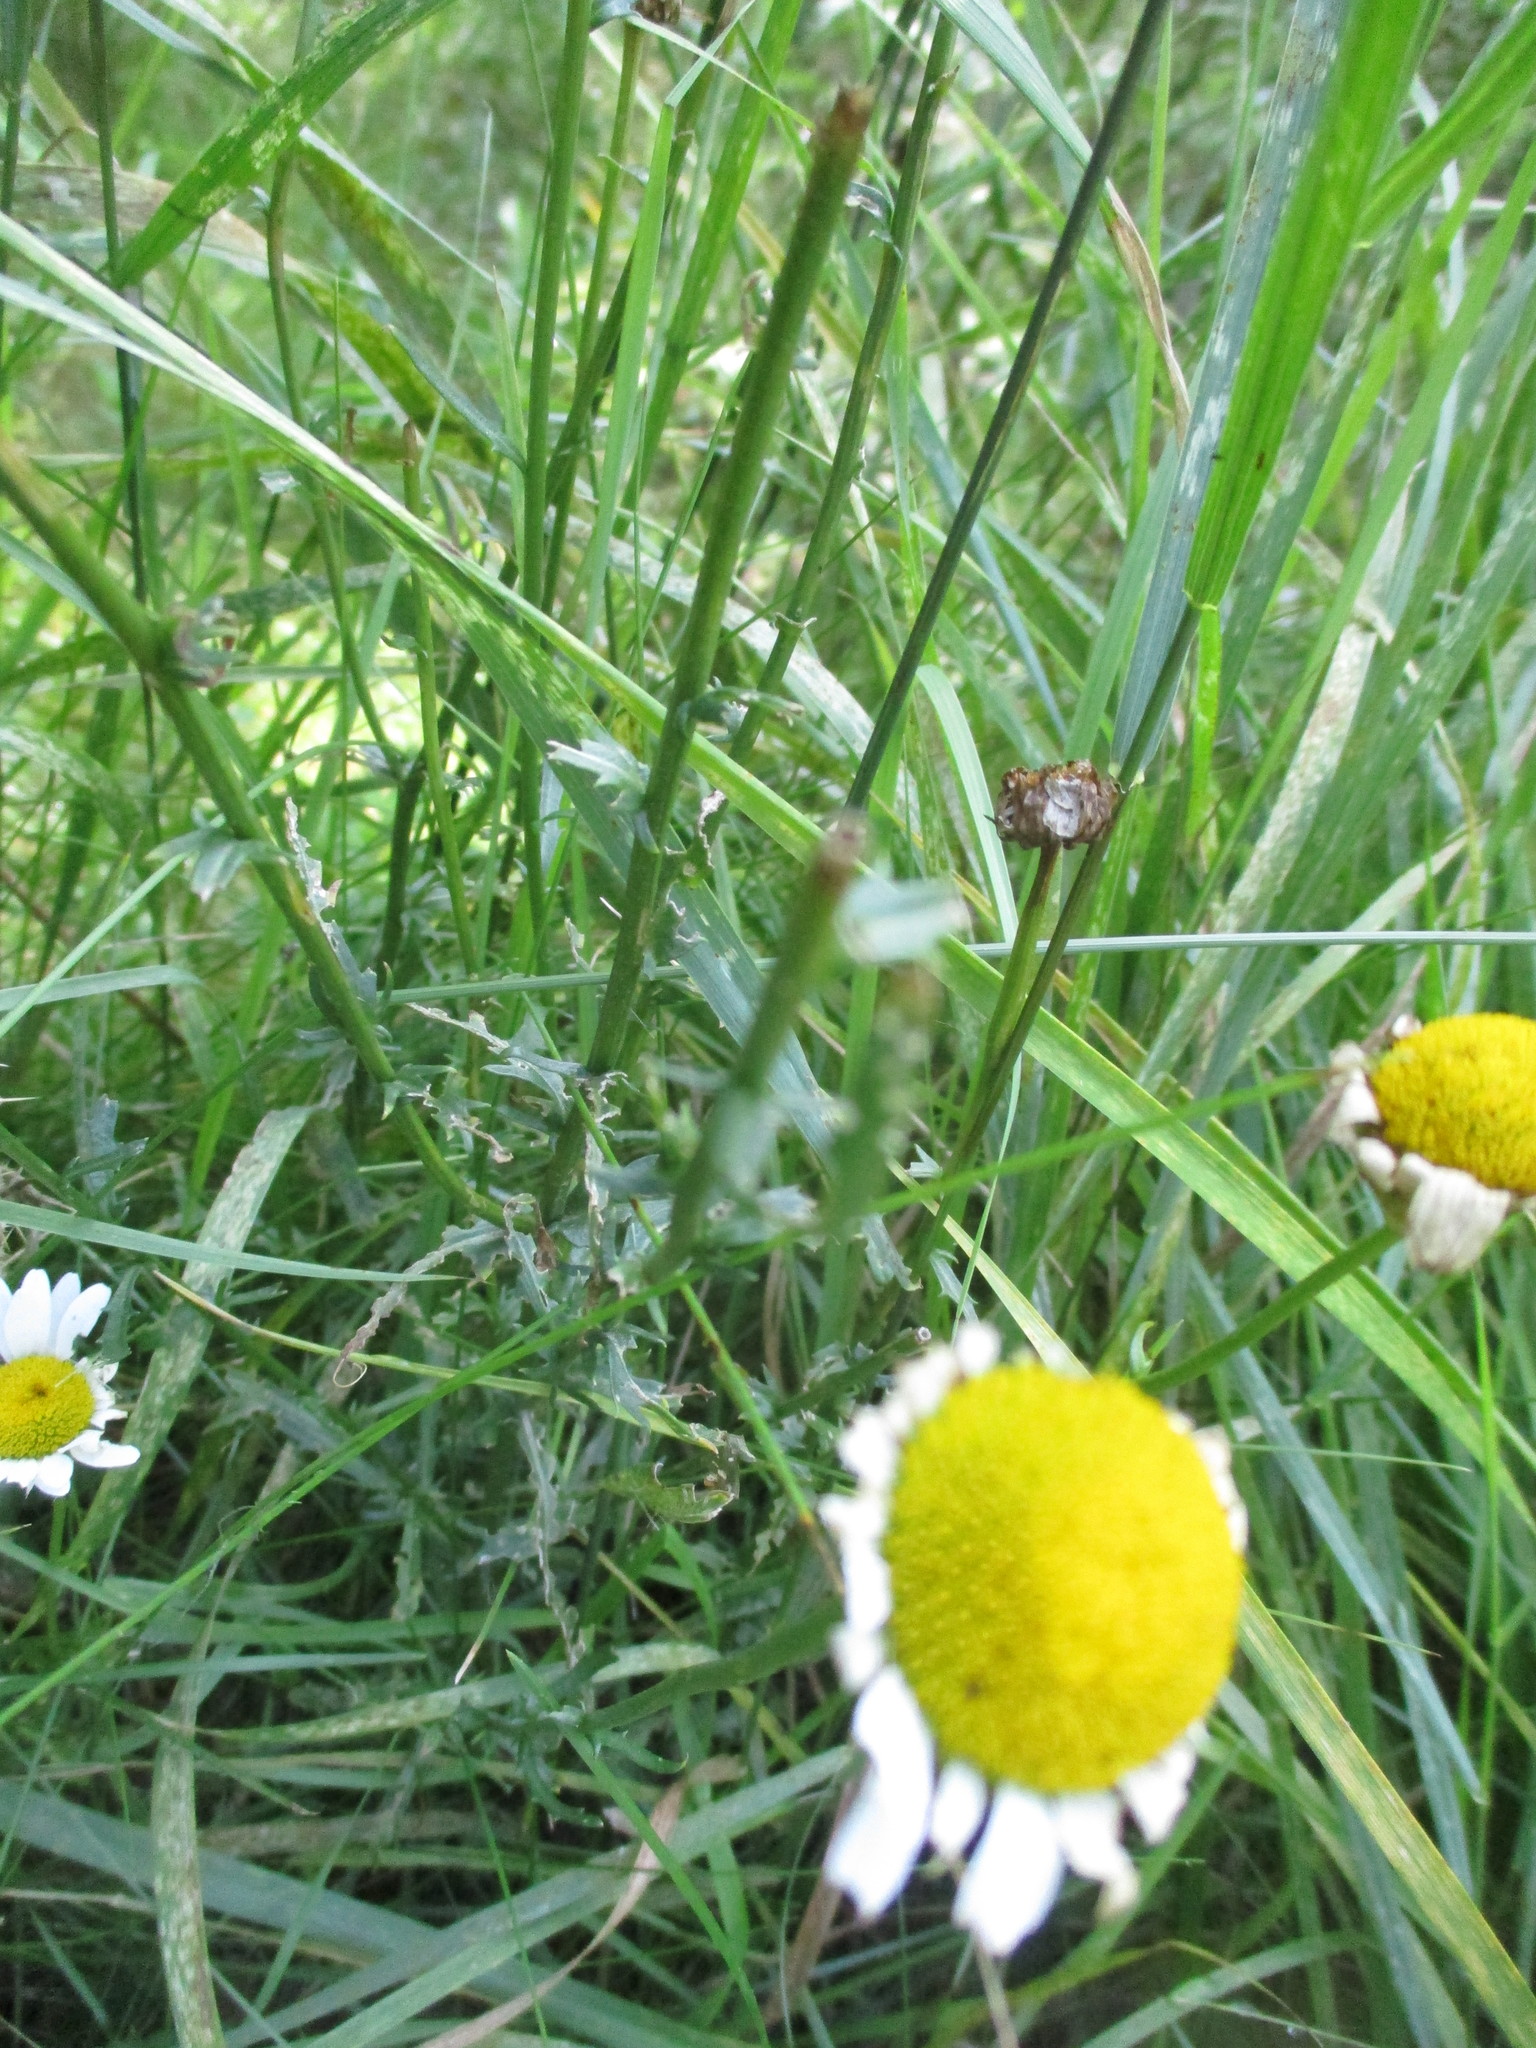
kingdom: Plantae
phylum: Tracheophyta
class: Magnoliopsida
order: Asterales
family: Asteraceae
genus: Leucanthemum
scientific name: Leucanthemum vulgare
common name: Oxeye daisy
